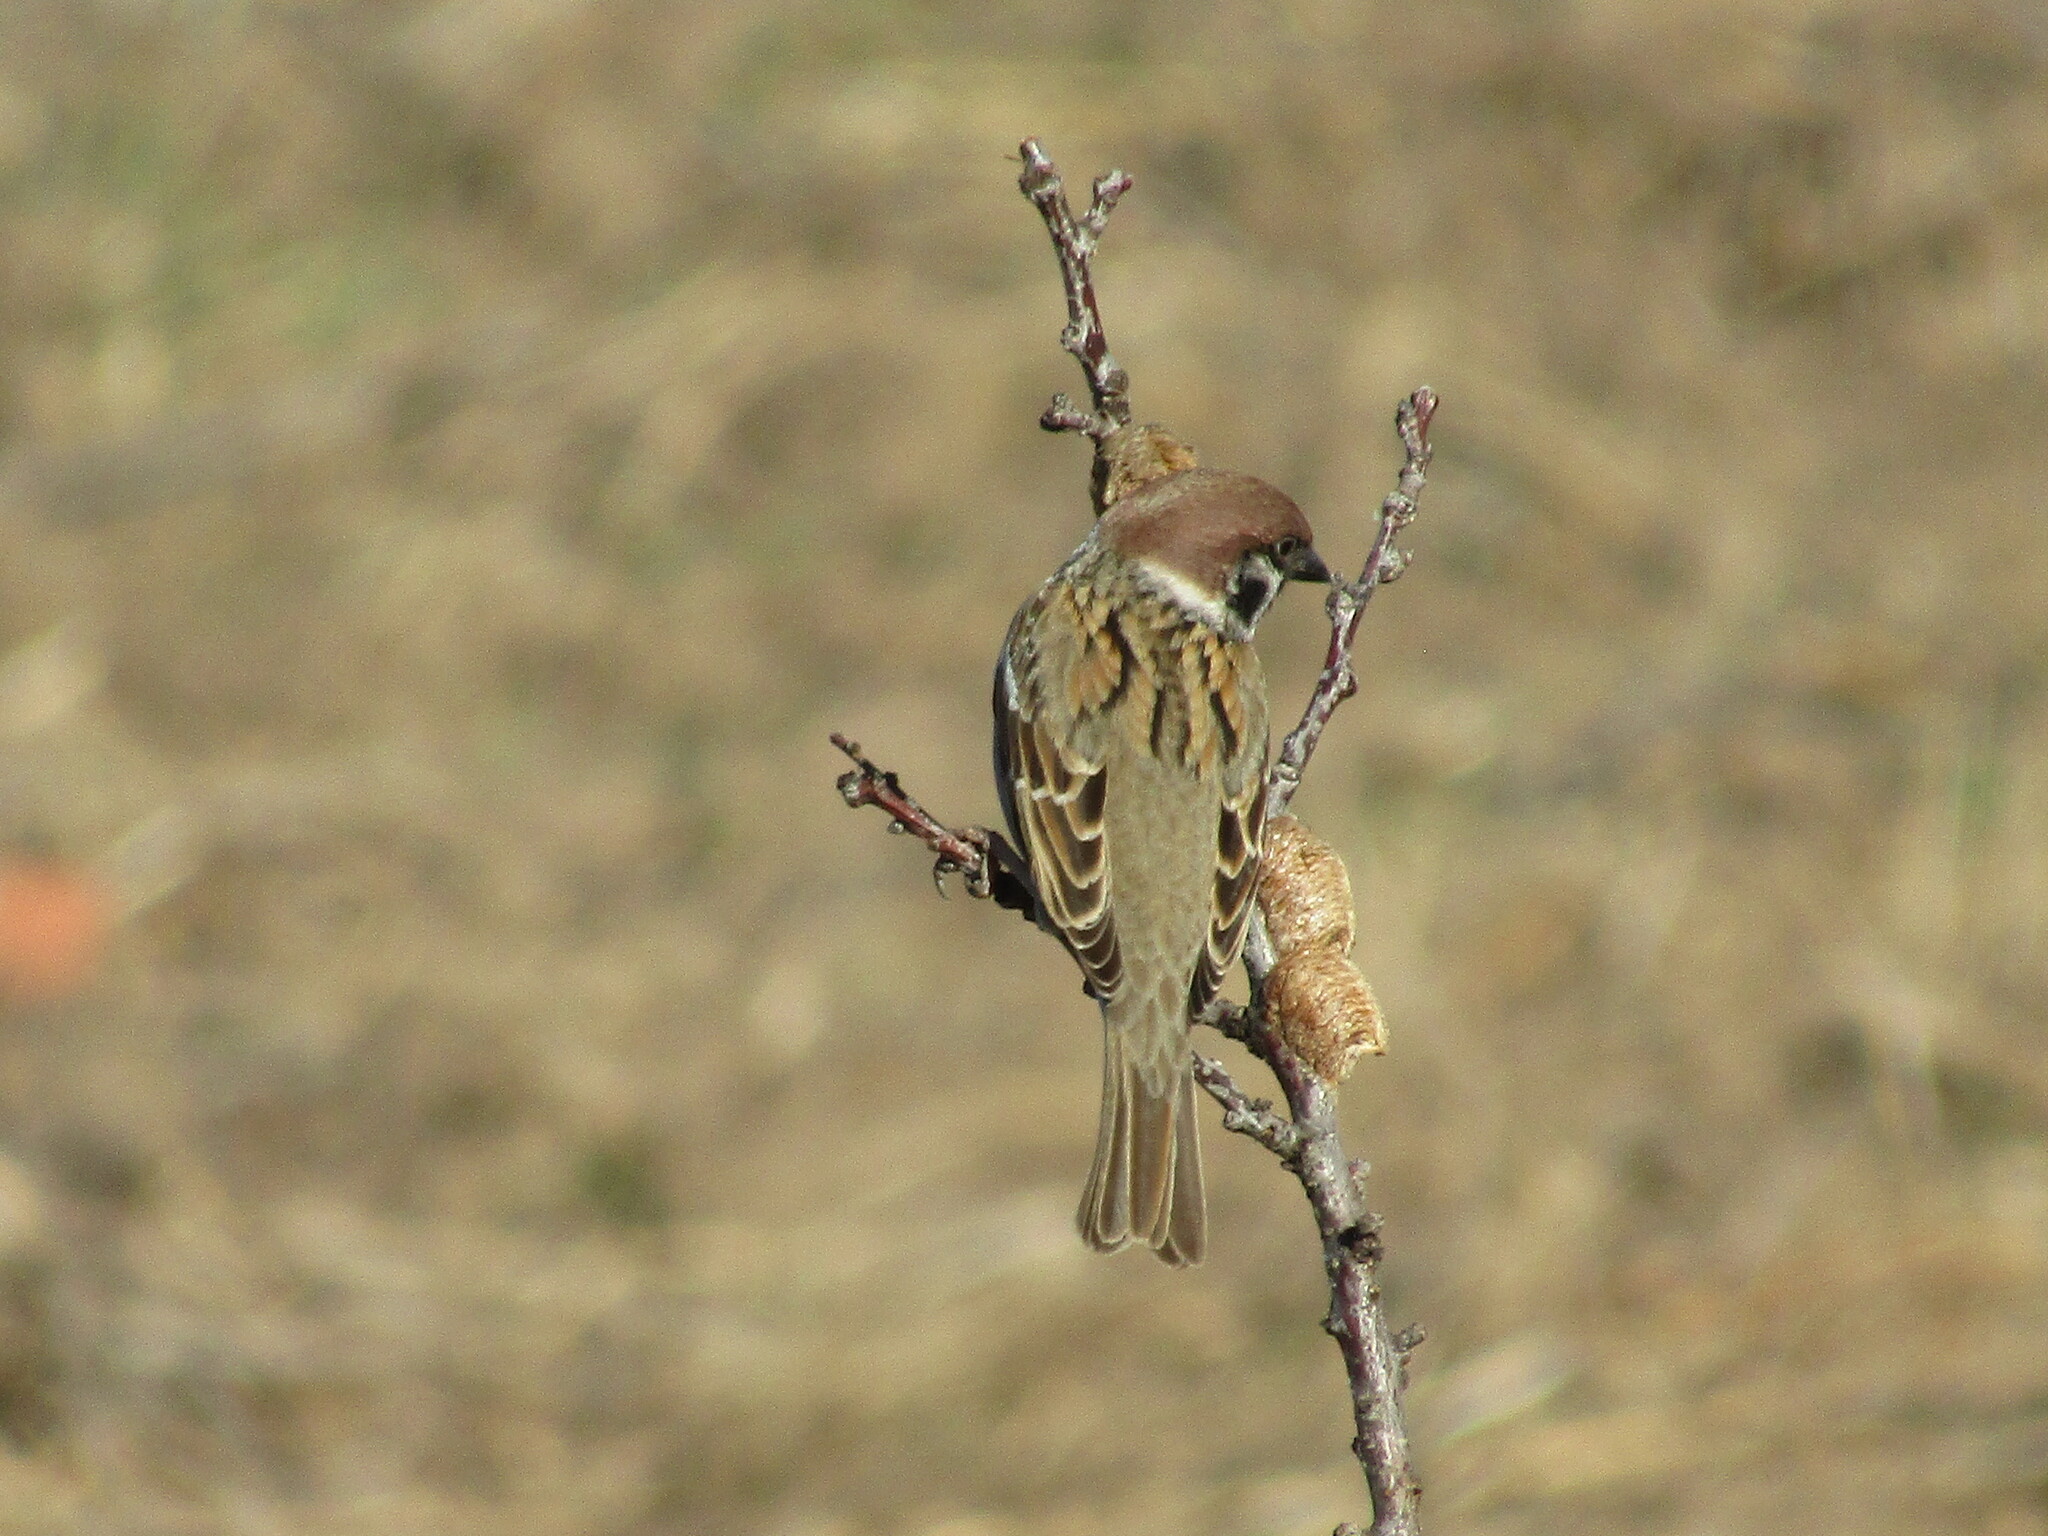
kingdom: Animalia
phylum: Chordata
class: Aves
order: Passeriformes
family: Passeridae
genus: Passer
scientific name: Passer montanus
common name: Eurasian tree sparrow
